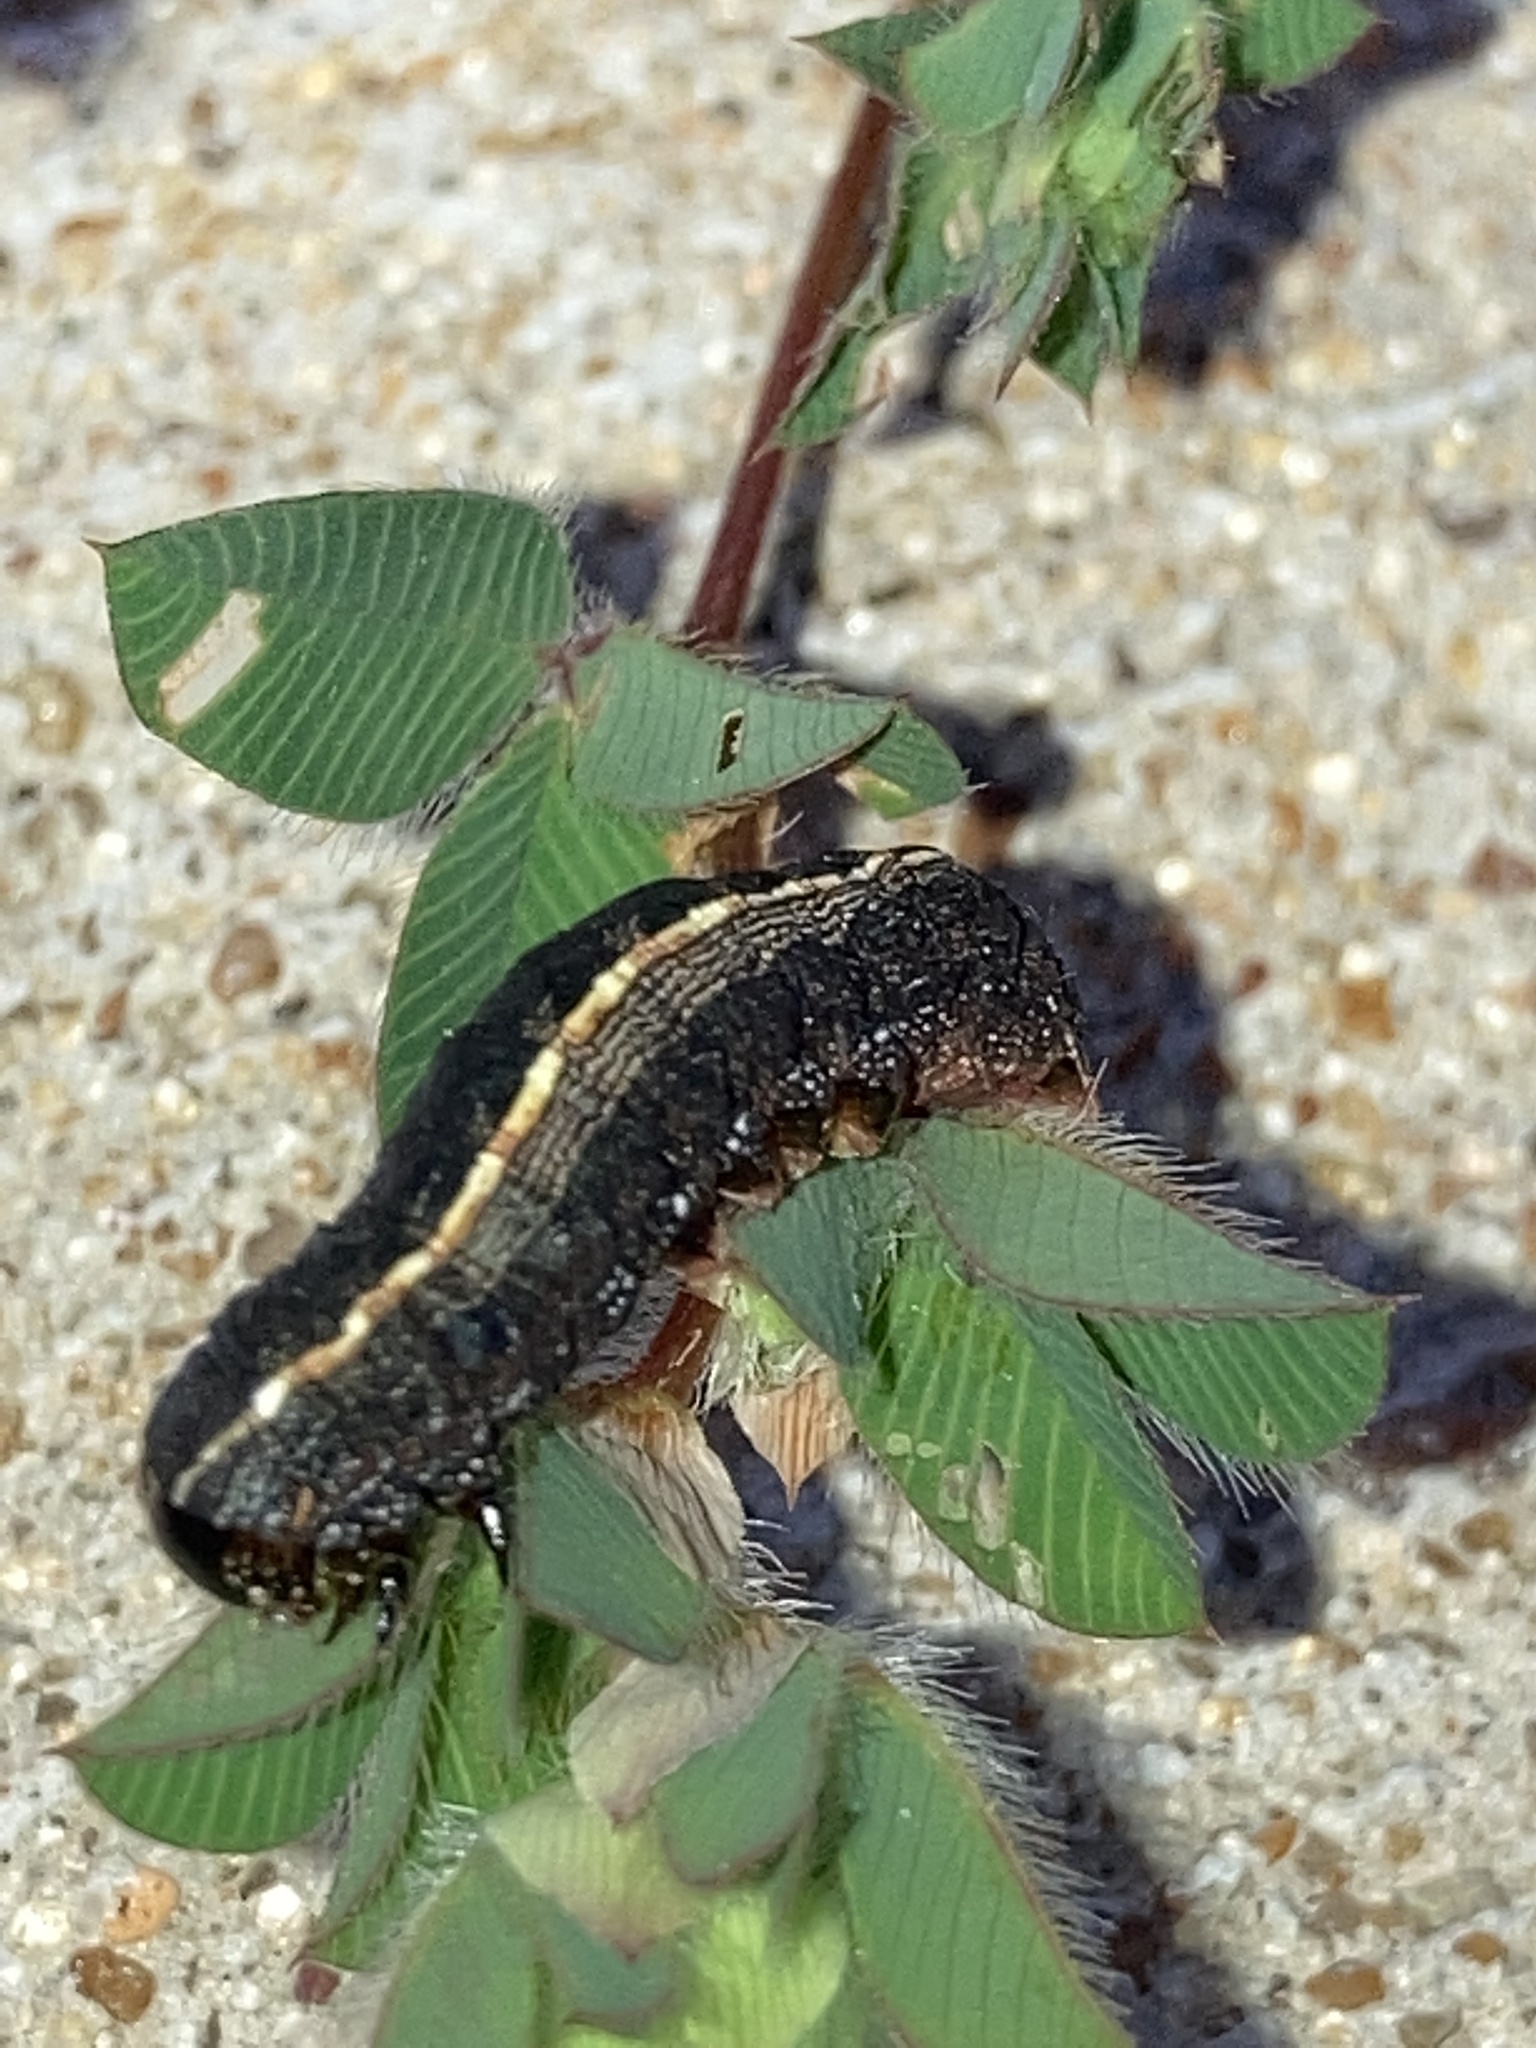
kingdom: Animalia
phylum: Arthropoda
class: Insecta
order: Lepidoptera
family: Noctuidae
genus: Spodoptera
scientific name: Spodoptera ornithogalli
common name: Yellow-striped armyworm
